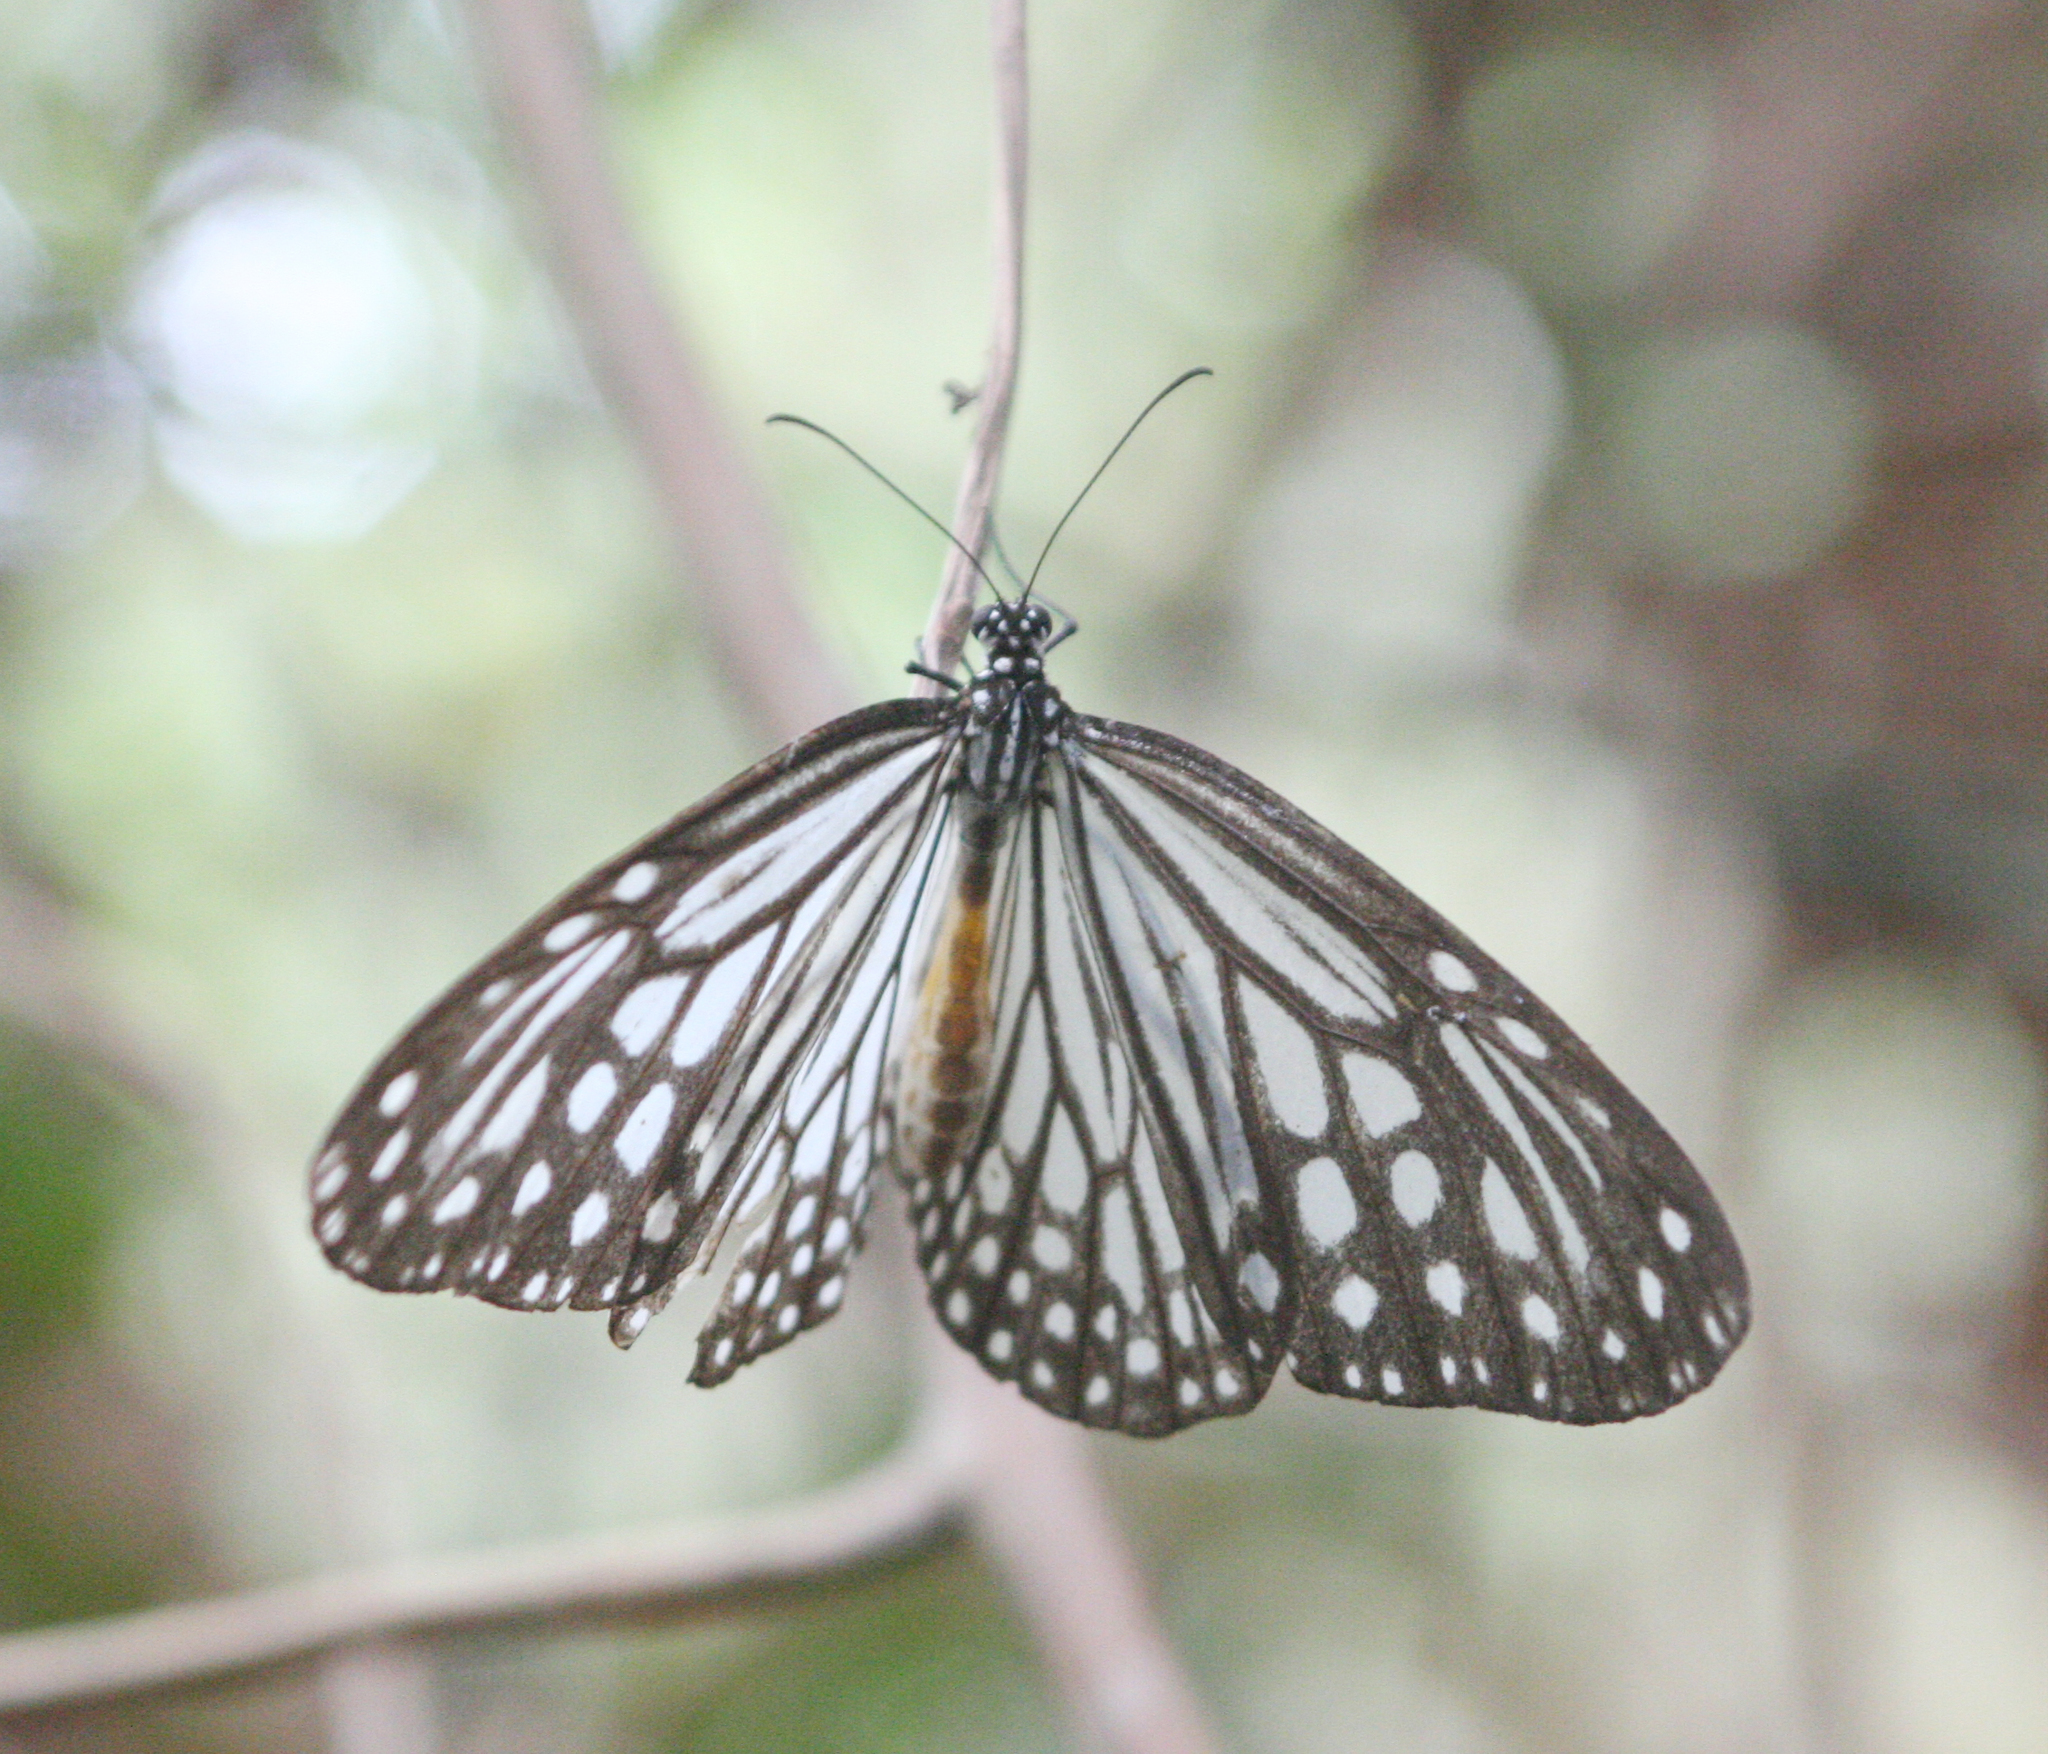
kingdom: Animalia
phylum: Arthropoda
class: Insecta
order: Lepidoptera
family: Nymphalidae
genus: Parantica
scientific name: Parantica aglea
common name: Glassy tiger
